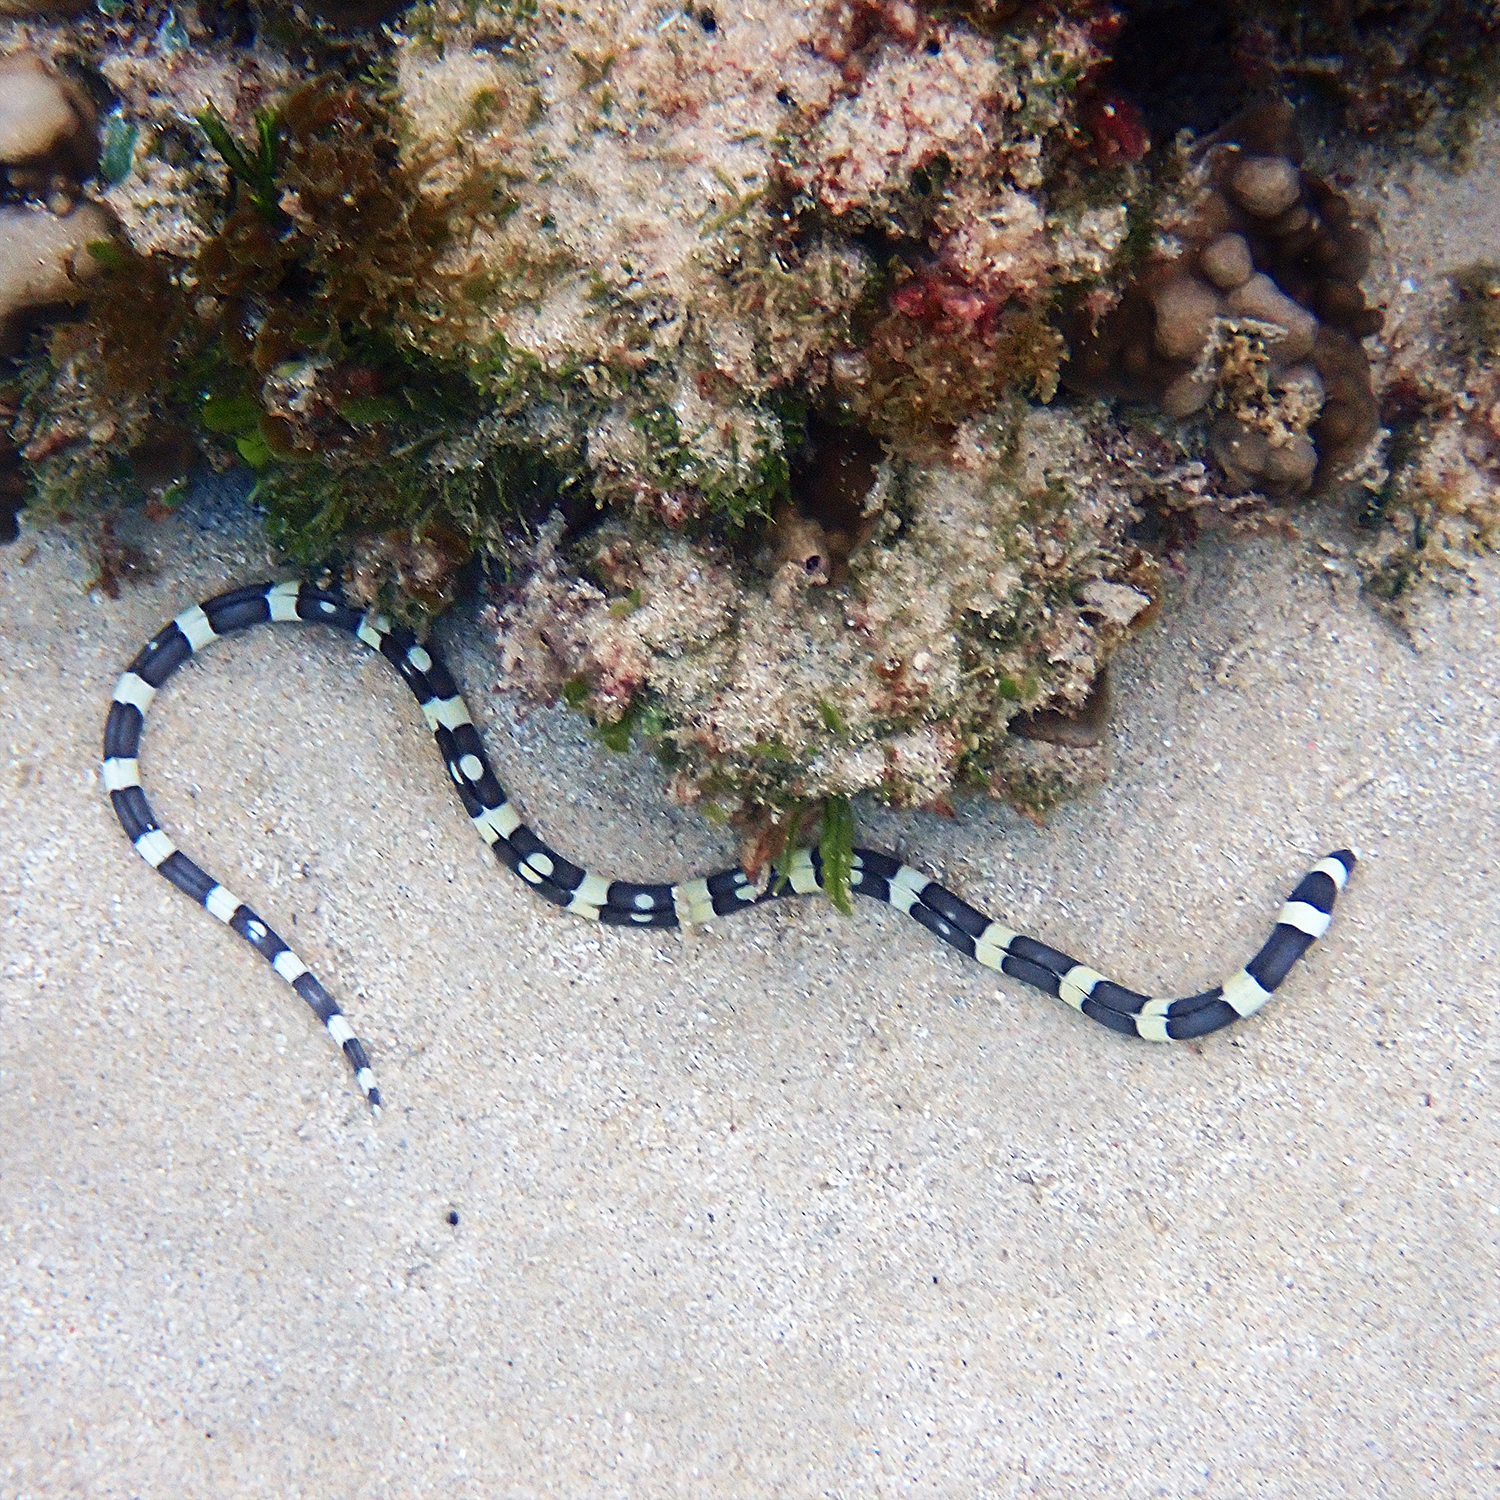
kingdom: Animalia
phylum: Chordata
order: Anguilliformes
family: Ophichthidae
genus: Leiuranus
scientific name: Leiuranus versicolor
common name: Convict snake eel
